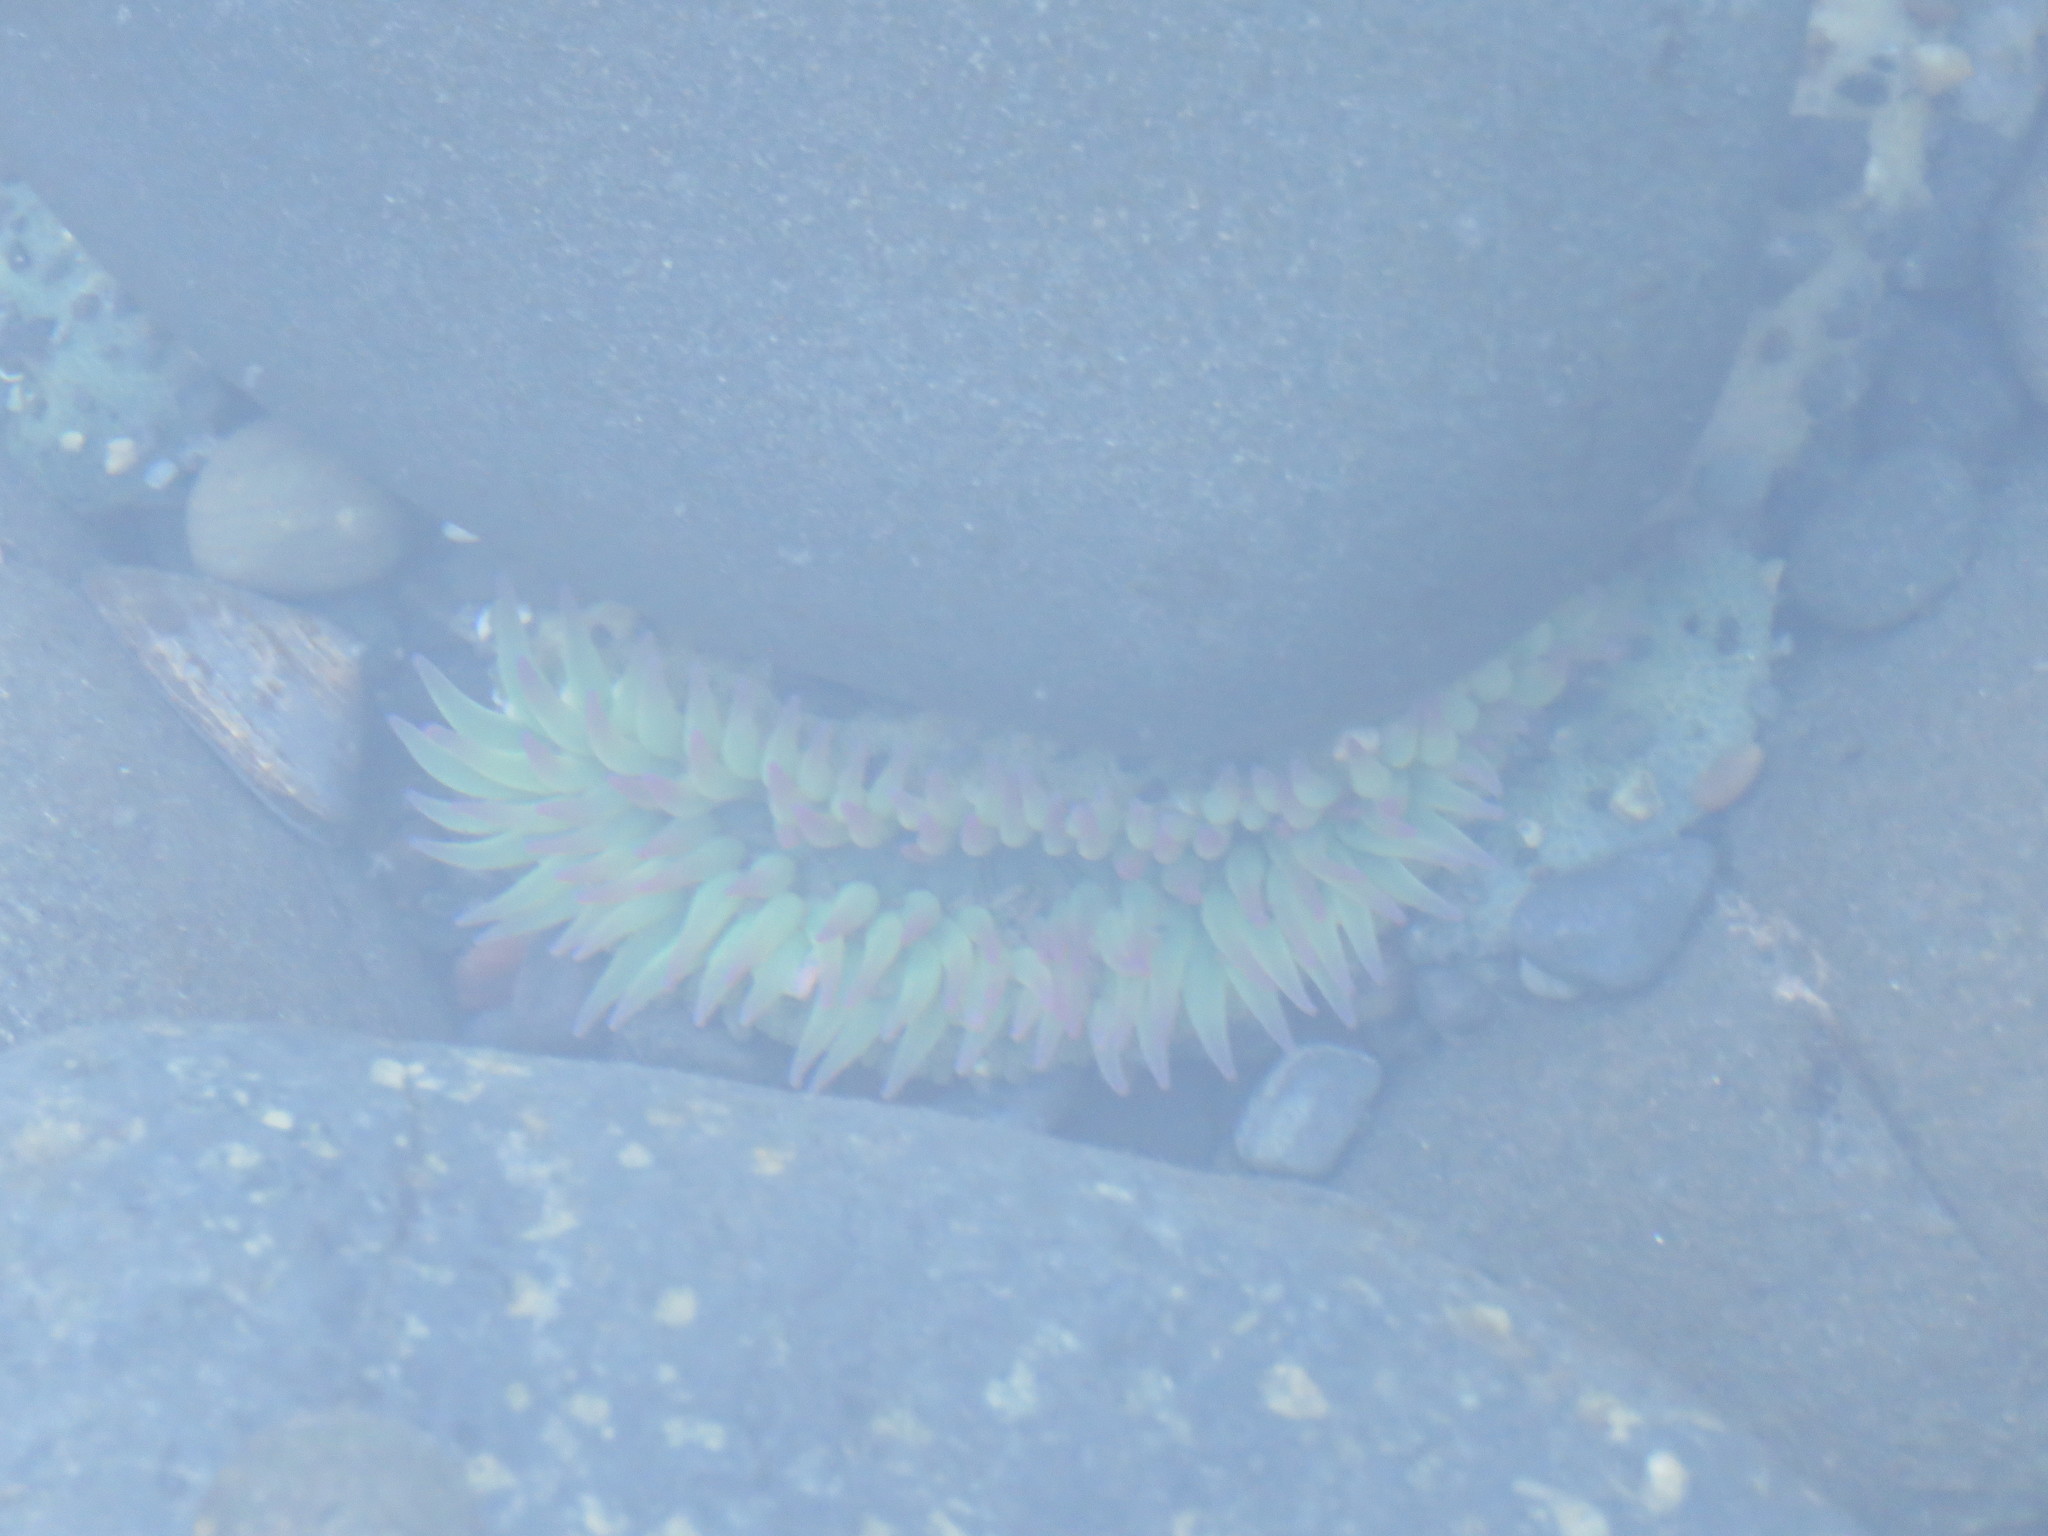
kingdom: Animalia
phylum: Cnidaria
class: Anthozoa
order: Actiniaria
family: Actiniidae
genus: Anthopleura
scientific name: Anthopleura elegantissima
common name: Clonal anemone
